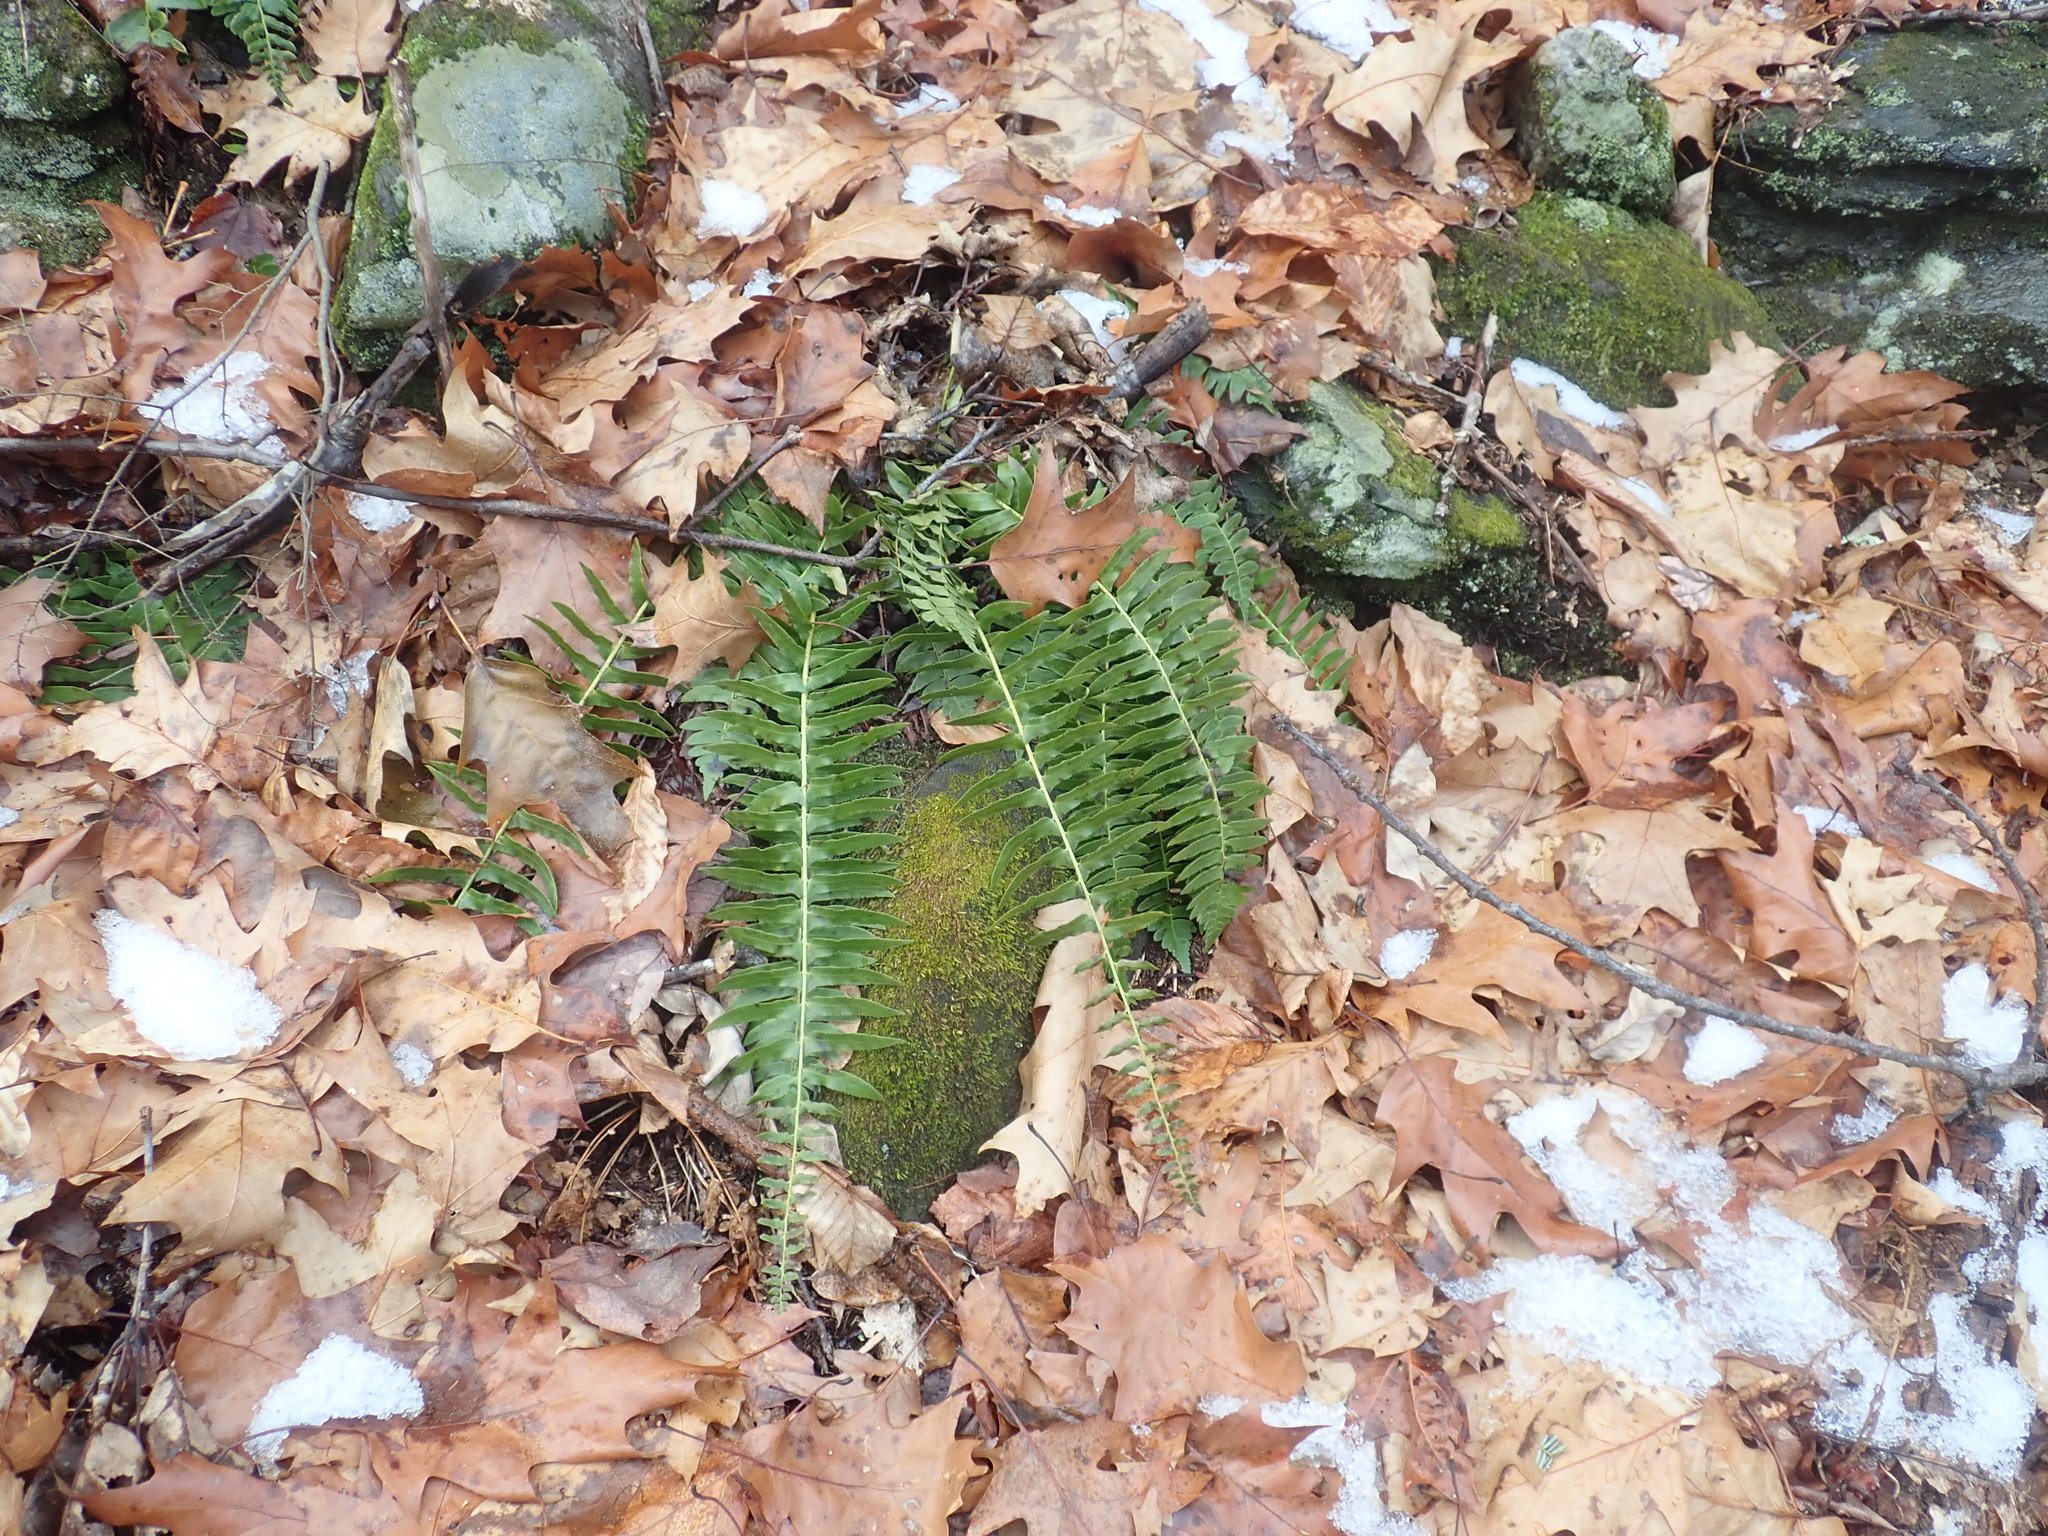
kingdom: Plantae
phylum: Tracheophyta
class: Polypodiopsida
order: Polypodiales
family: Dryopteridaceae
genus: Polystichum
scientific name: Polystichum acrostichoides
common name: Christmas fern
